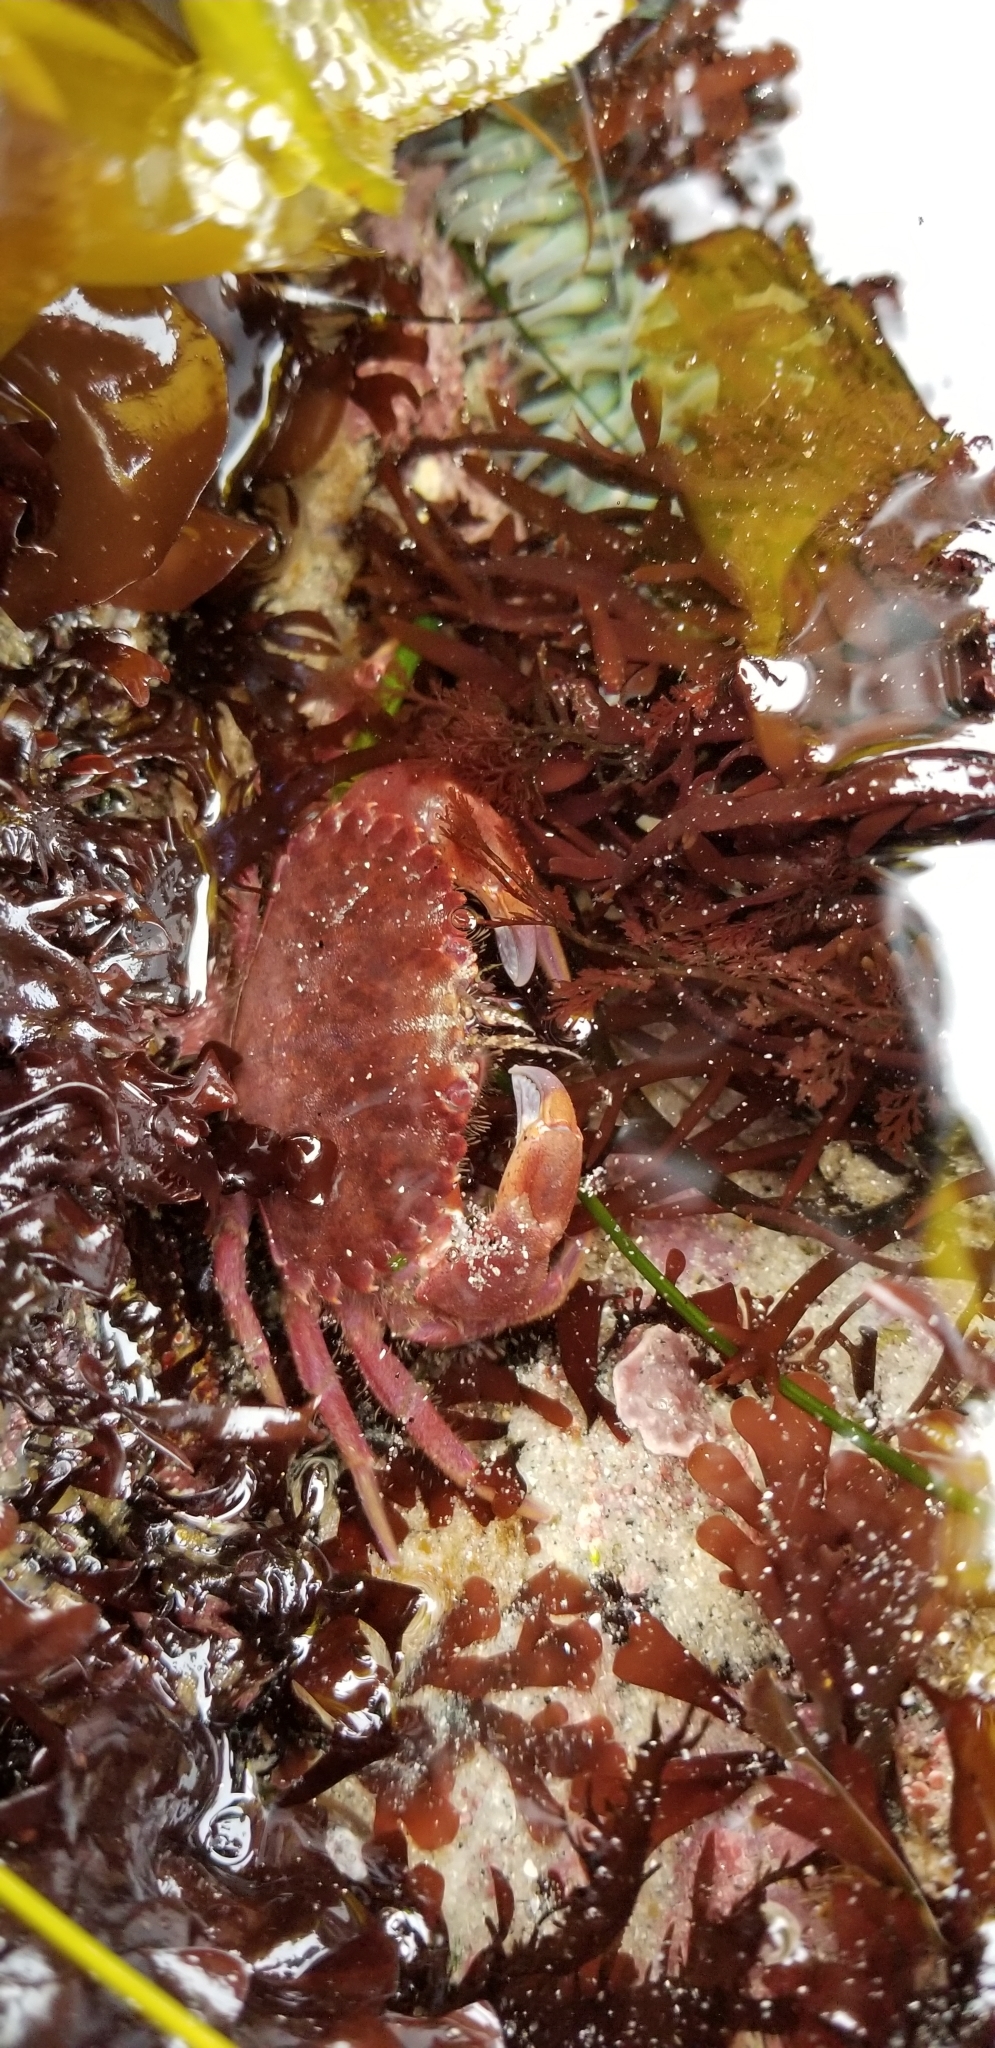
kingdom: Animalia
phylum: Arthropoda
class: Malacostraca
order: Decapoda
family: Cancridae
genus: Romaleon
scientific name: Romaleon antennarium
